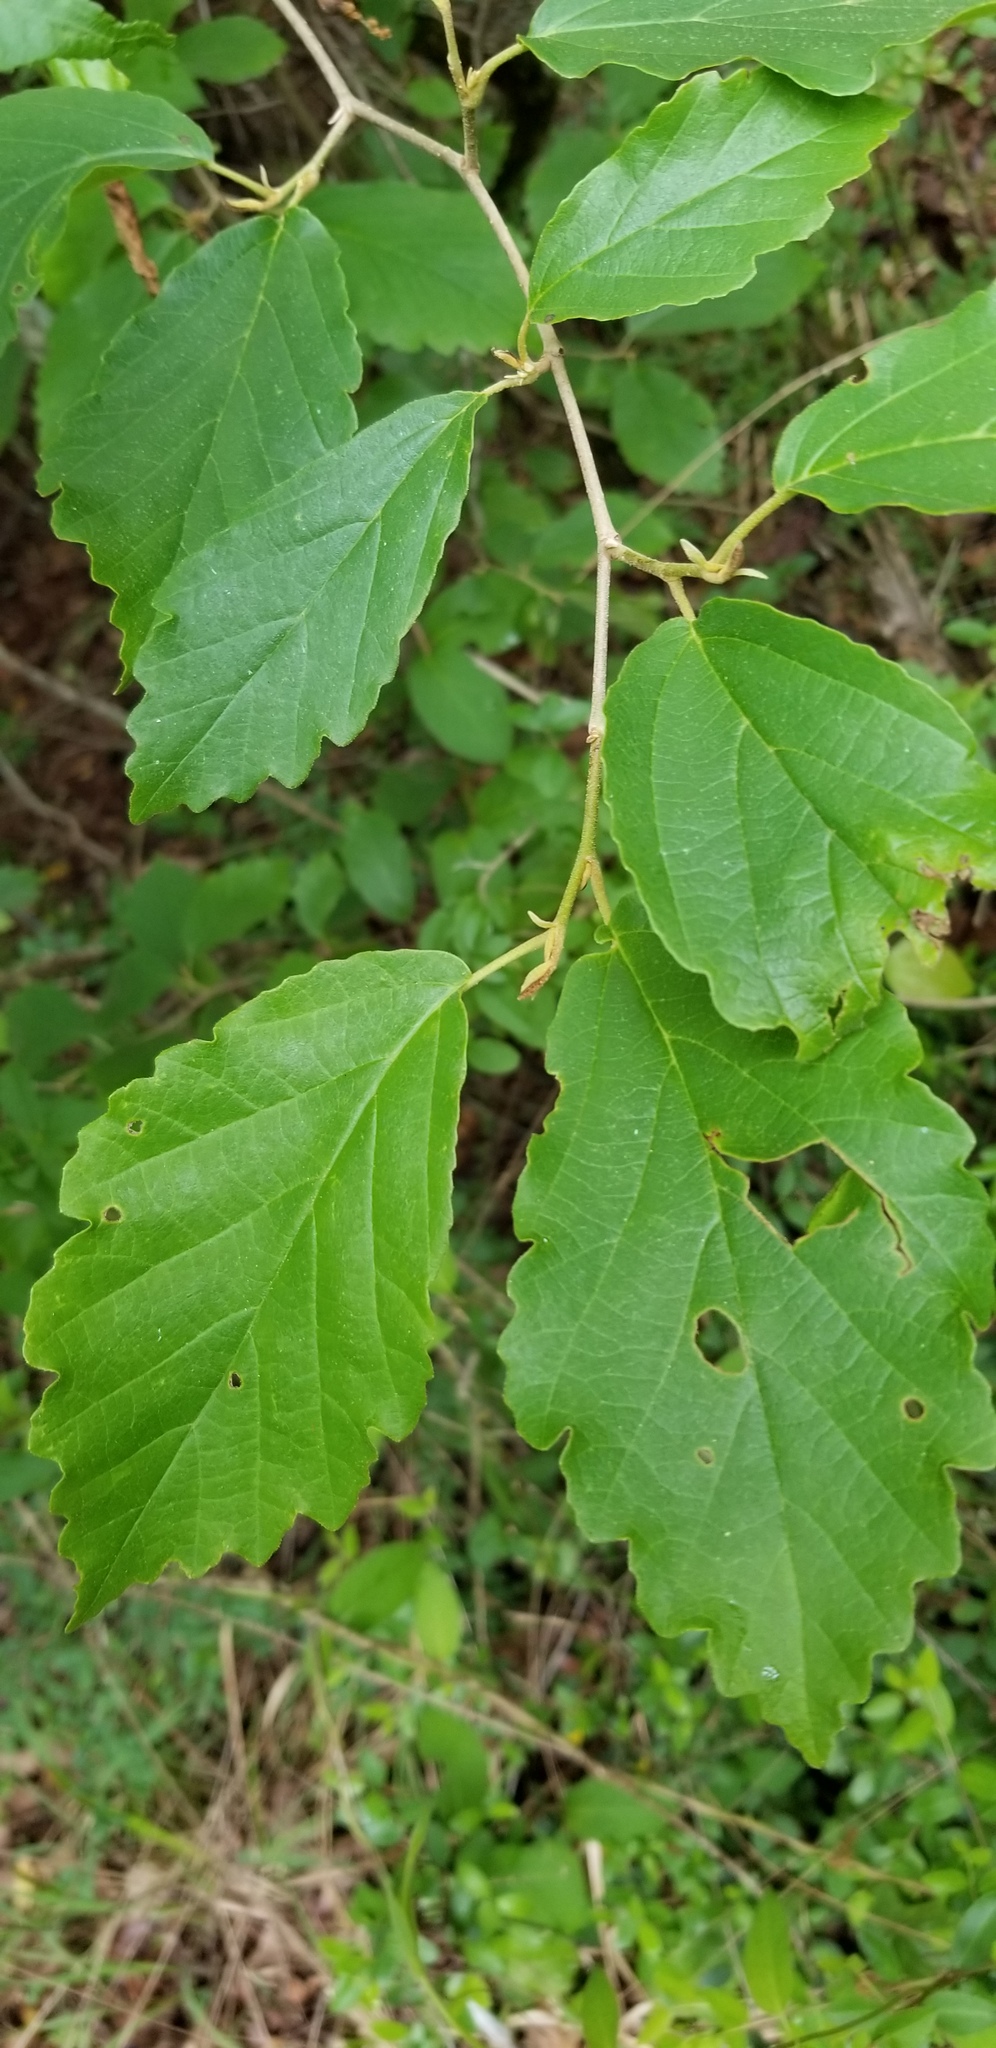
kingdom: Plantae
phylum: Tracheophyta
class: Magnoliopsida
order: Saxifragales
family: Hamamelidaceae
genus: Hamamelis
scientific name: Hamamelis virginiana
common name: Witch-hazel
